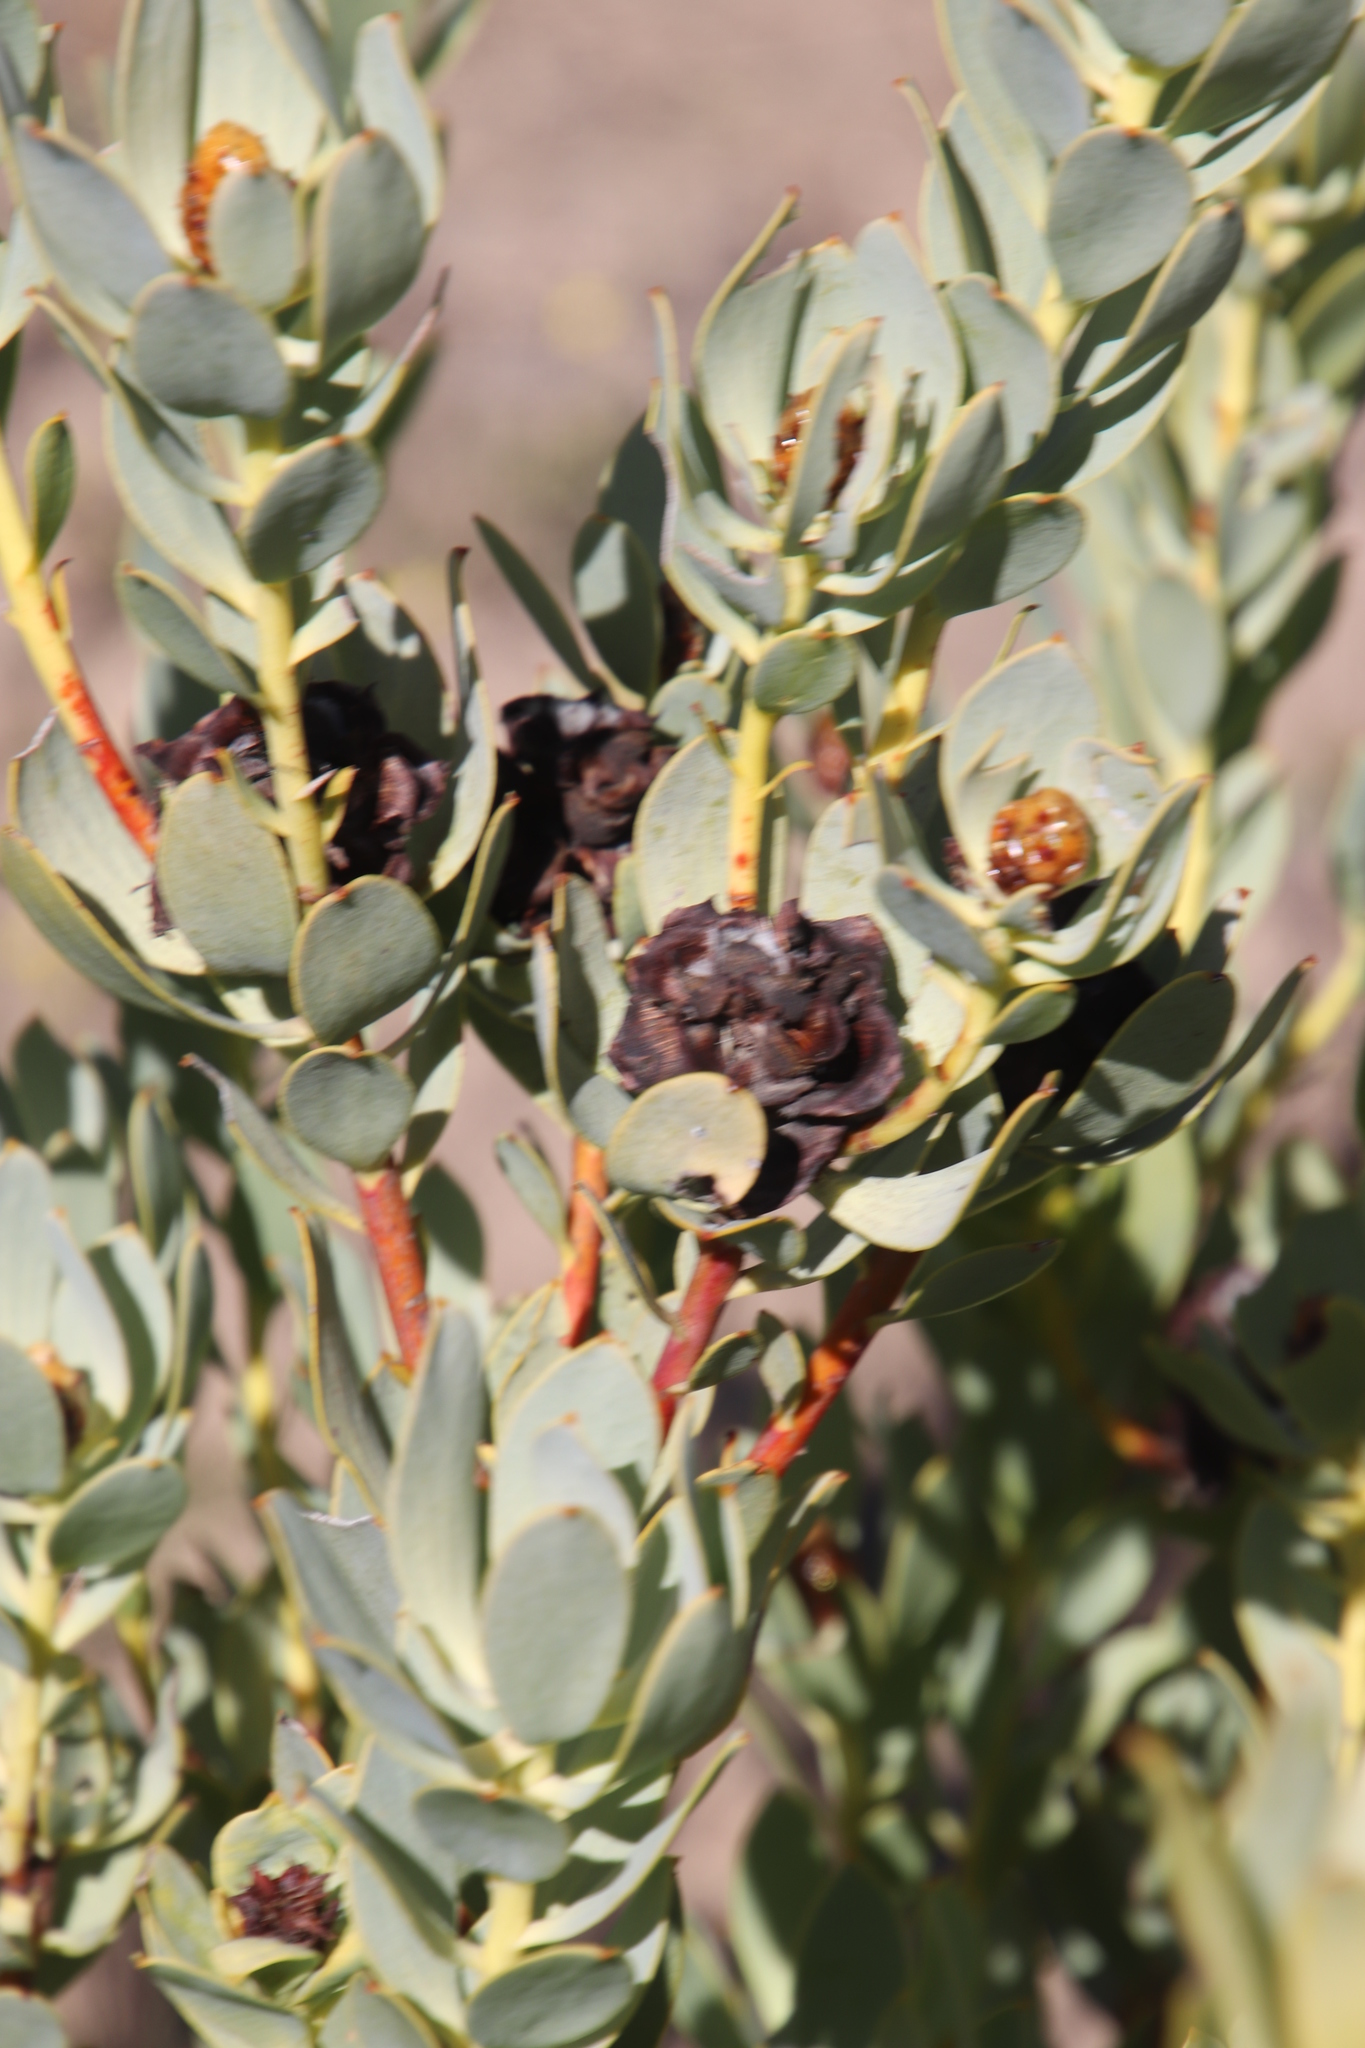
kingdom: Plantae
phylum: Tracheophyta
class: Magnoliopsida
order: Proteales
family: Proteaceae
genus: Leucadendron
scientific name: Leucadendron loranthifolium
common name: Green-flower sunbush
